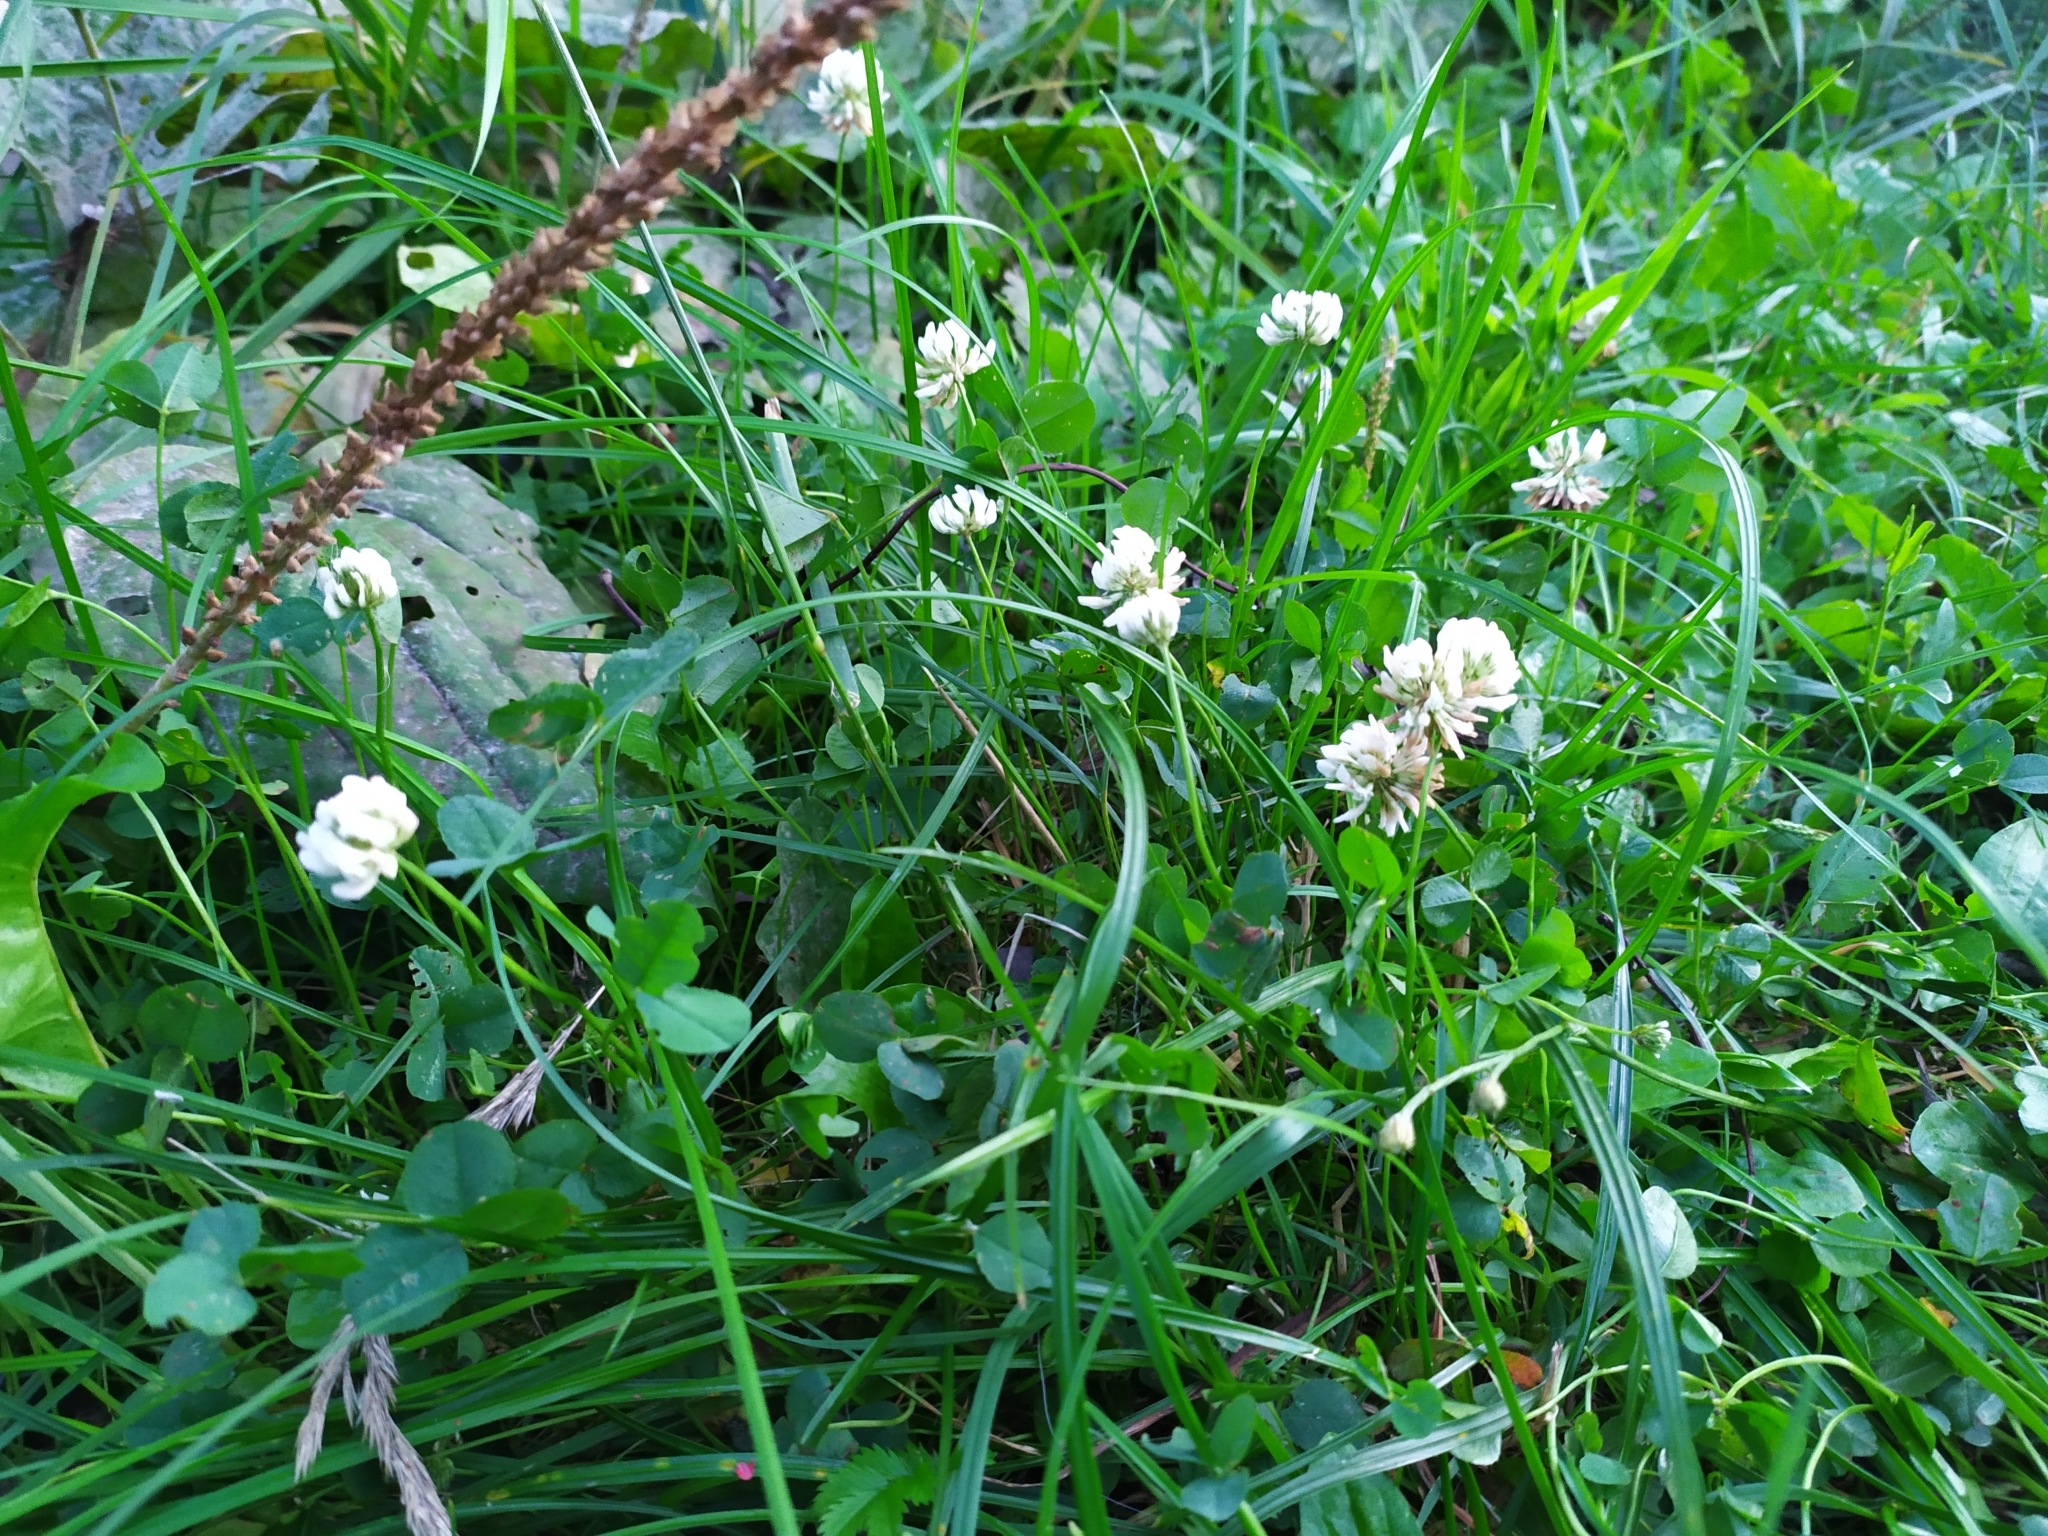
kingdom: Plantae
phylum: Tracheophyta
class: Magnoliopsida
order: Fabales
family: Fabaceae
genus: Trifolium
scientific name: Trifolium repens
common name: White clover
